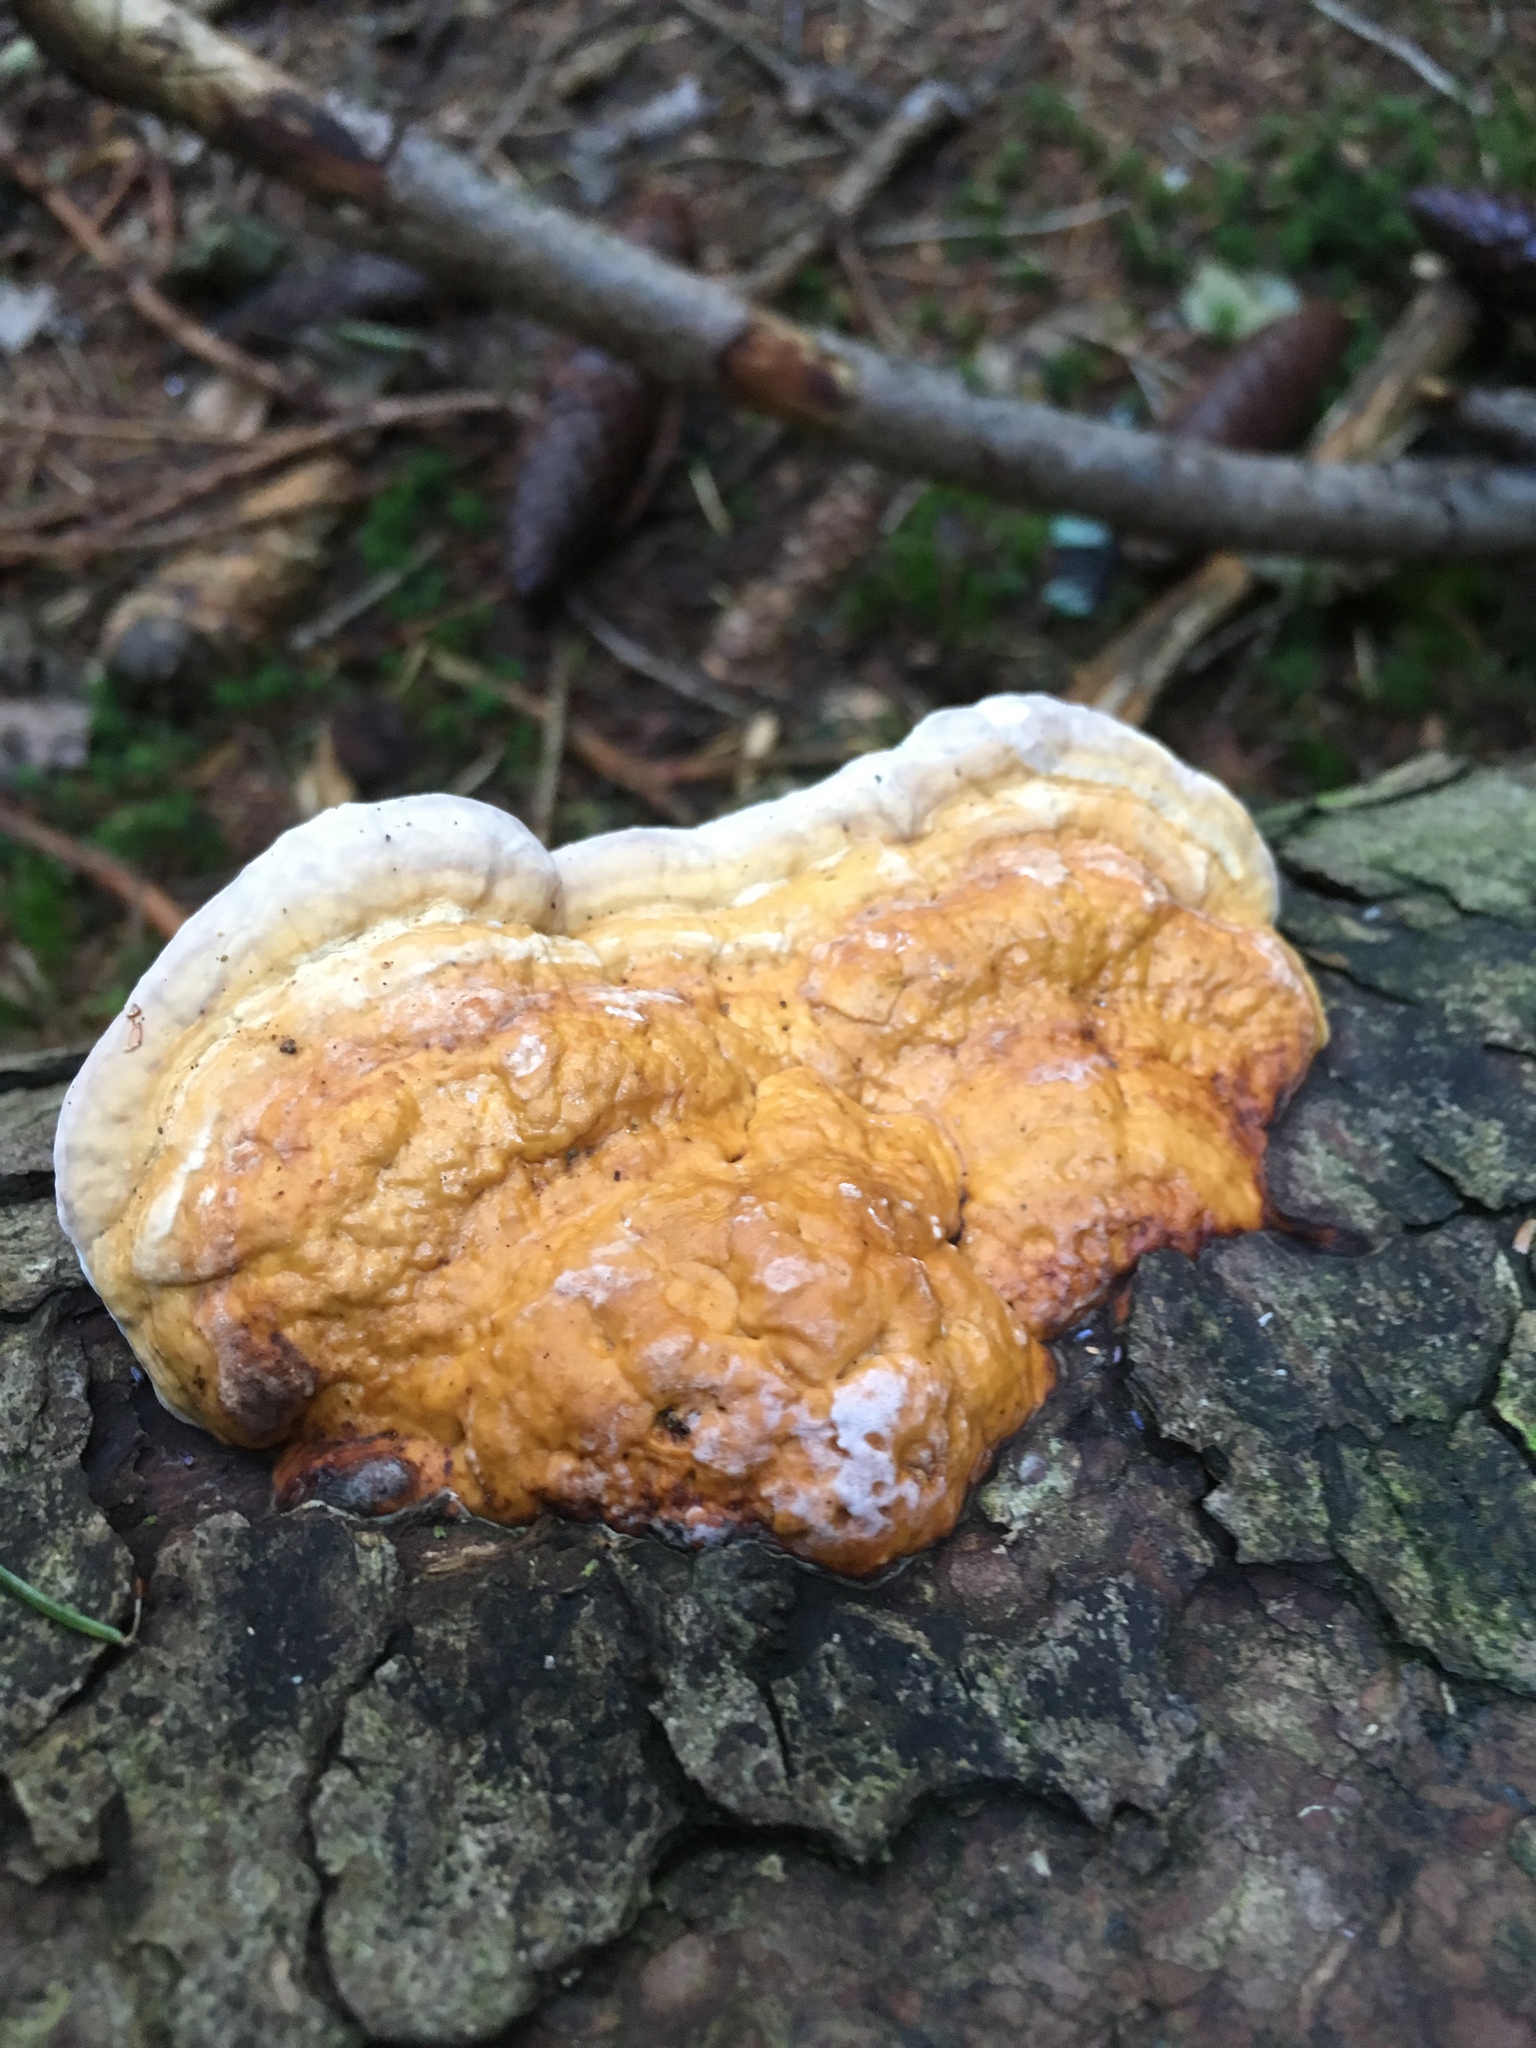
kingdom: Fungi
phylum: Basidiomycota
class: Agaricomycetes
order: Polyporales
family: Fomitopsidaceae
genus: Fomitopsis
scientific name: Fomitopsis pinicola
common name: Red-belted bracket
